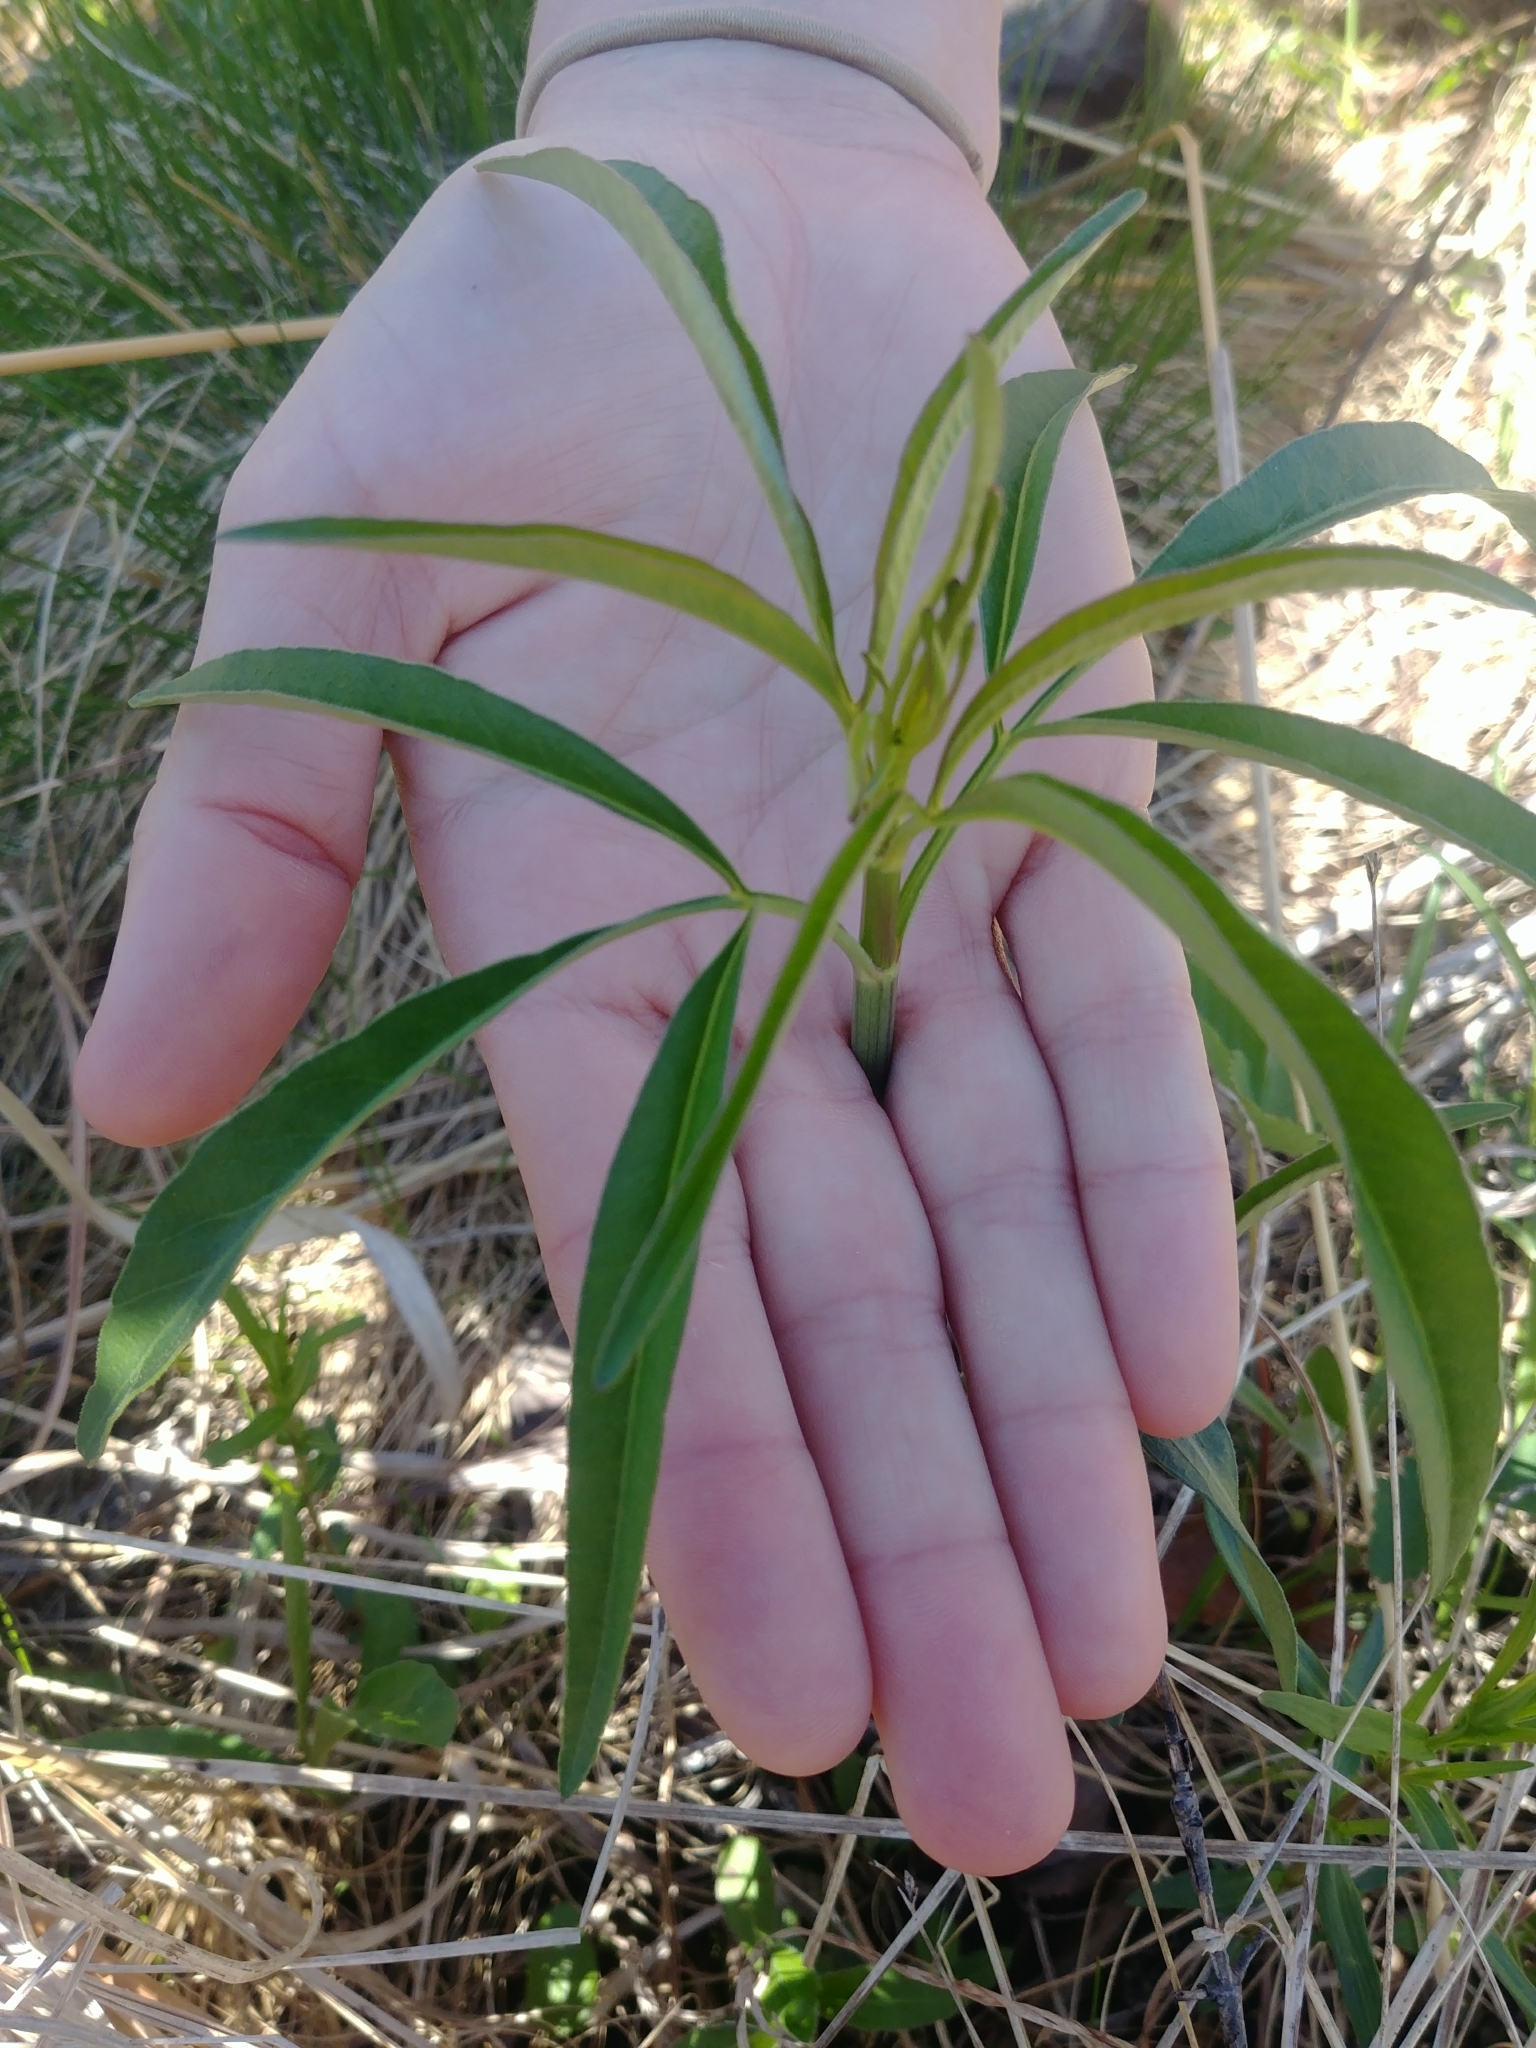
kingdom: Plantae
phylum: Tracheophyta
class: Magnoliopsida
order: Asterales
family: Asteraceae
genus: Coreopsis
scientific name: Coreopsis tripteris
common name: Tall coreopsis
